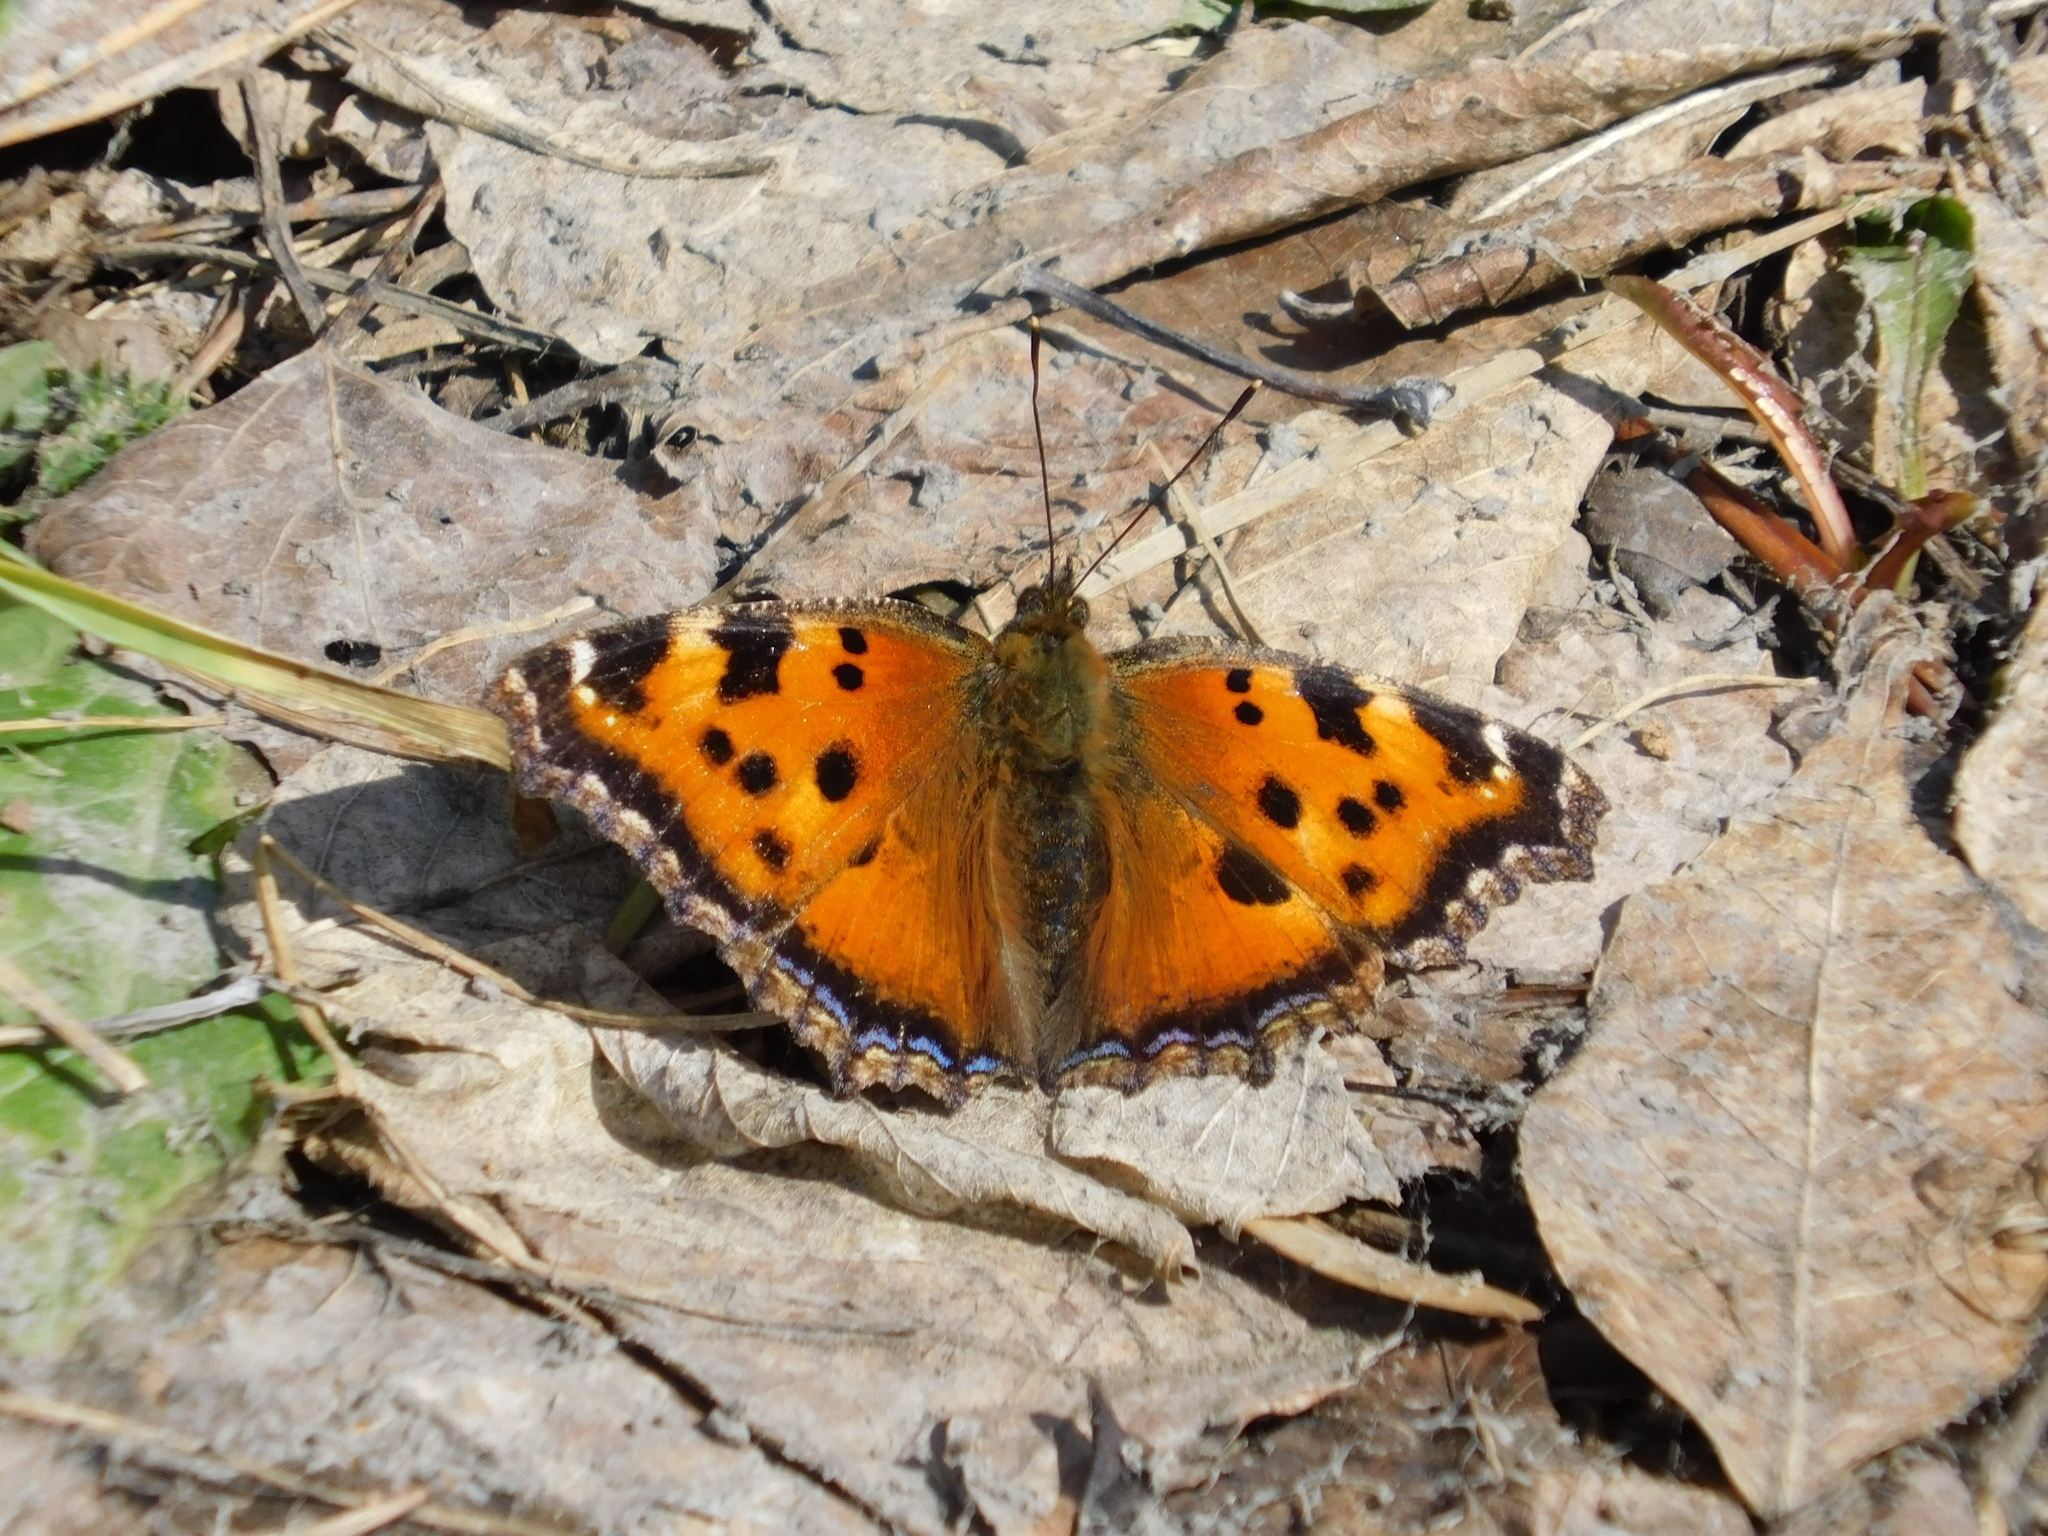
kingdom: Animalia
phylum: Arthropoda
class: Insecta
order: Lepidoptera
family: Nymphalidae
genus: Nymphalis
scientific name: Nymphalis xanthomelas
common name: Scarce tortoiseshell
